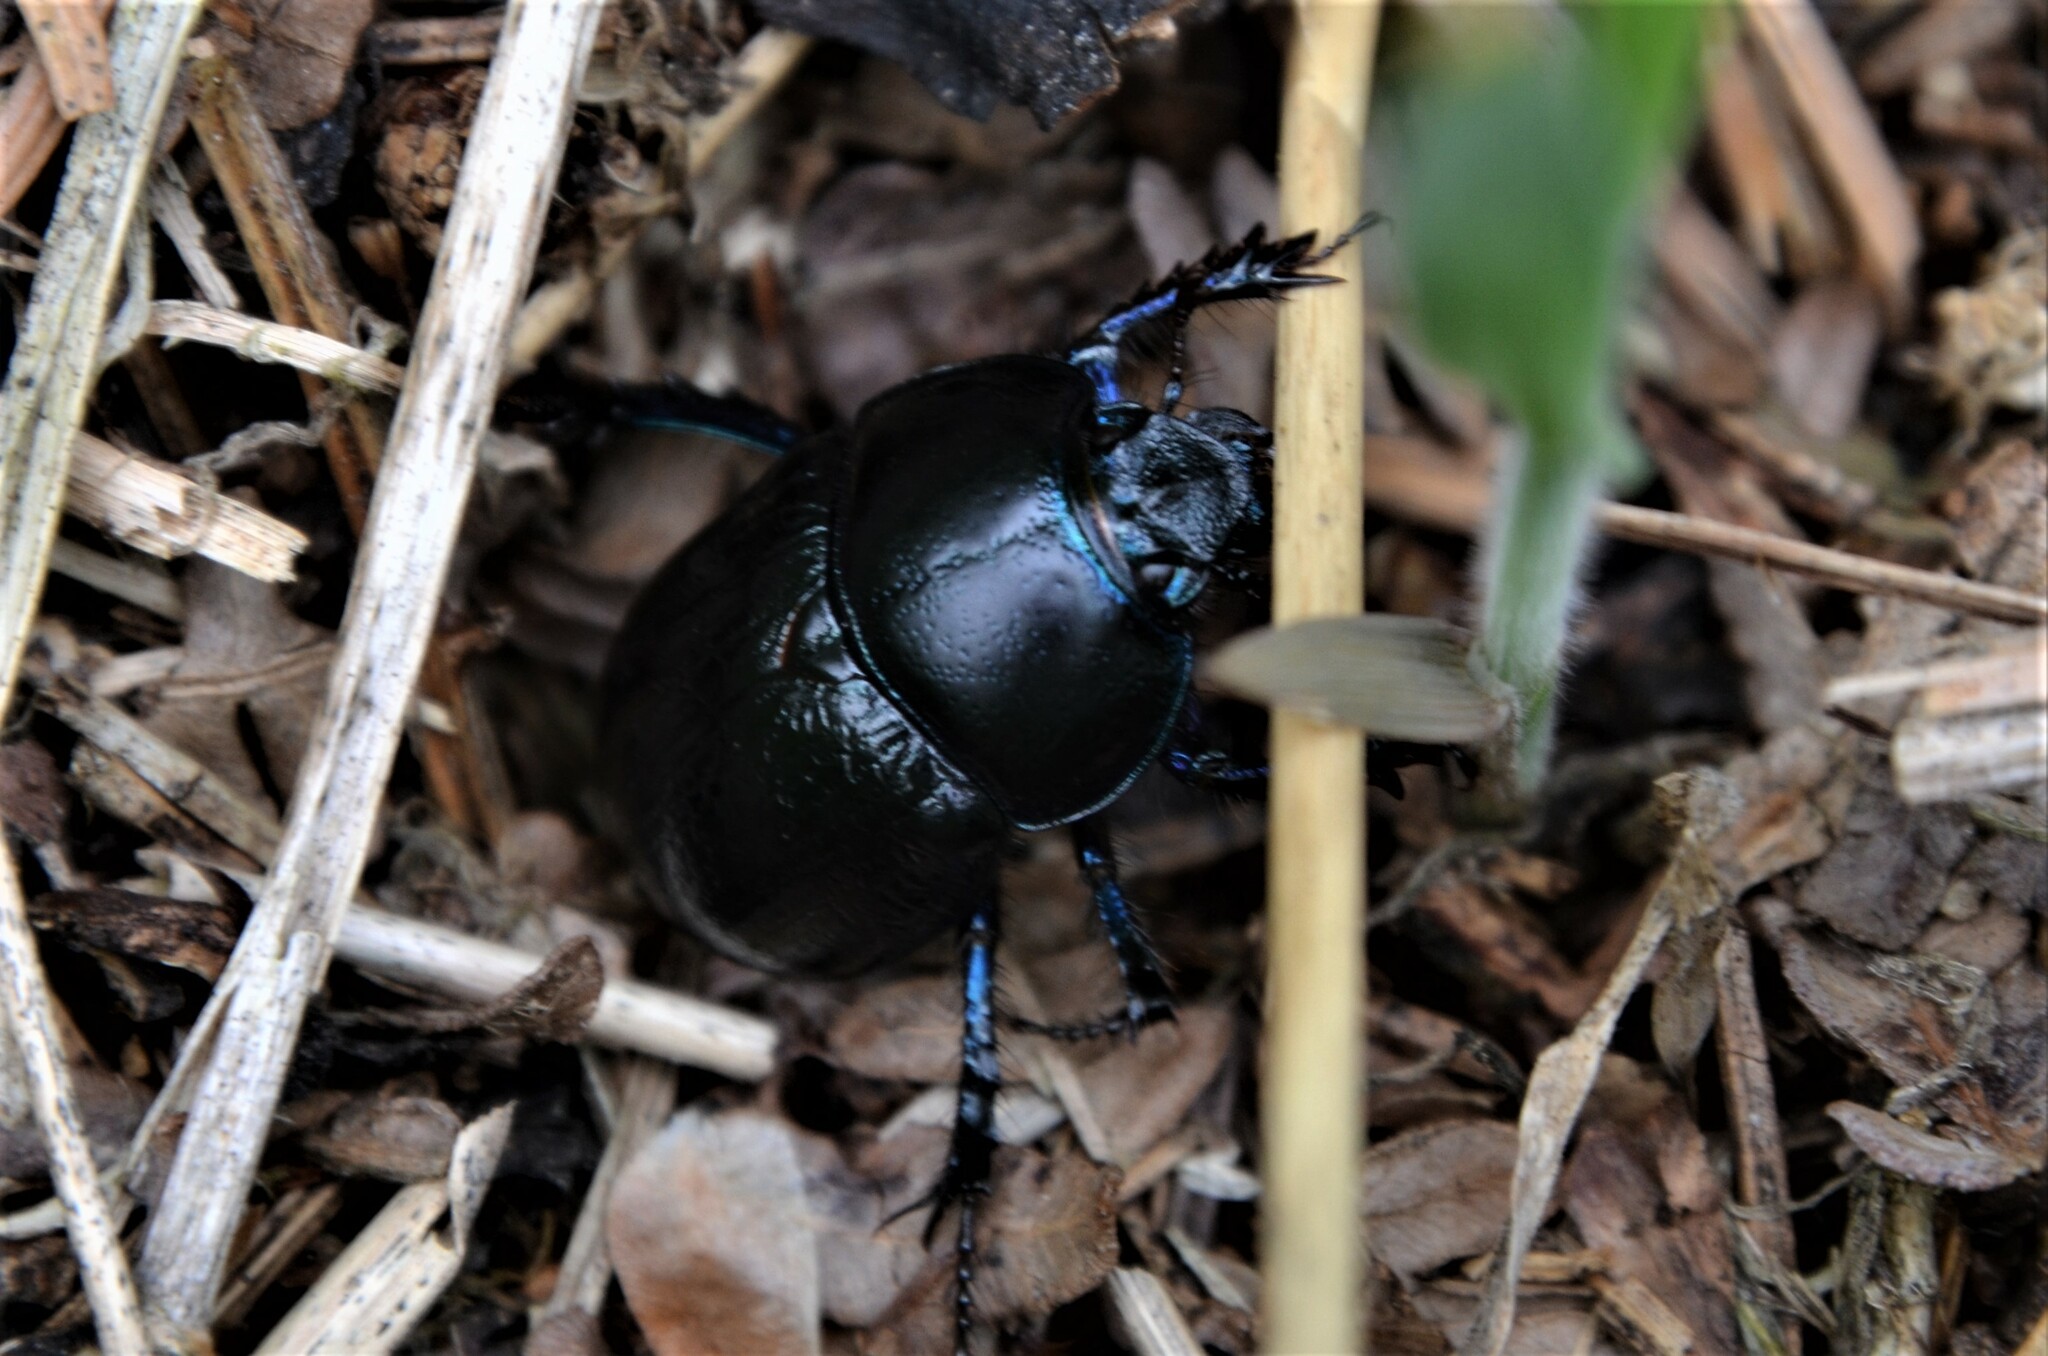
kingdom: Animalia
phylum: Arthropoda
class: Insecta
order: Coleoptera
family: Geotrupidae
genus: Anoplotrupes
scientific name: Anoplotrupes stercorosus
